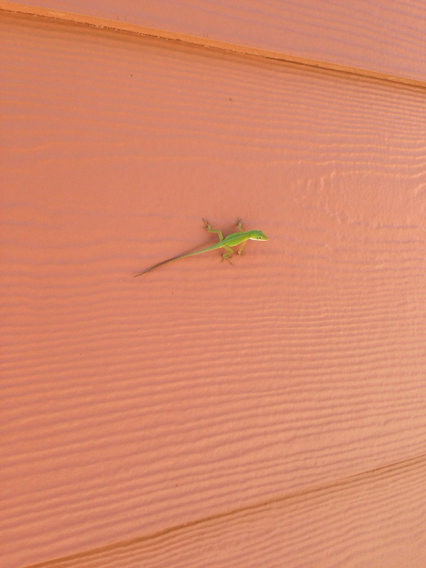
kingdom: Animalia
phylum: Chordata
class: Squamata
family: Dactyloidae
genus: Anolis
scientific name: Anolis carolinensis
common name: Green anole
